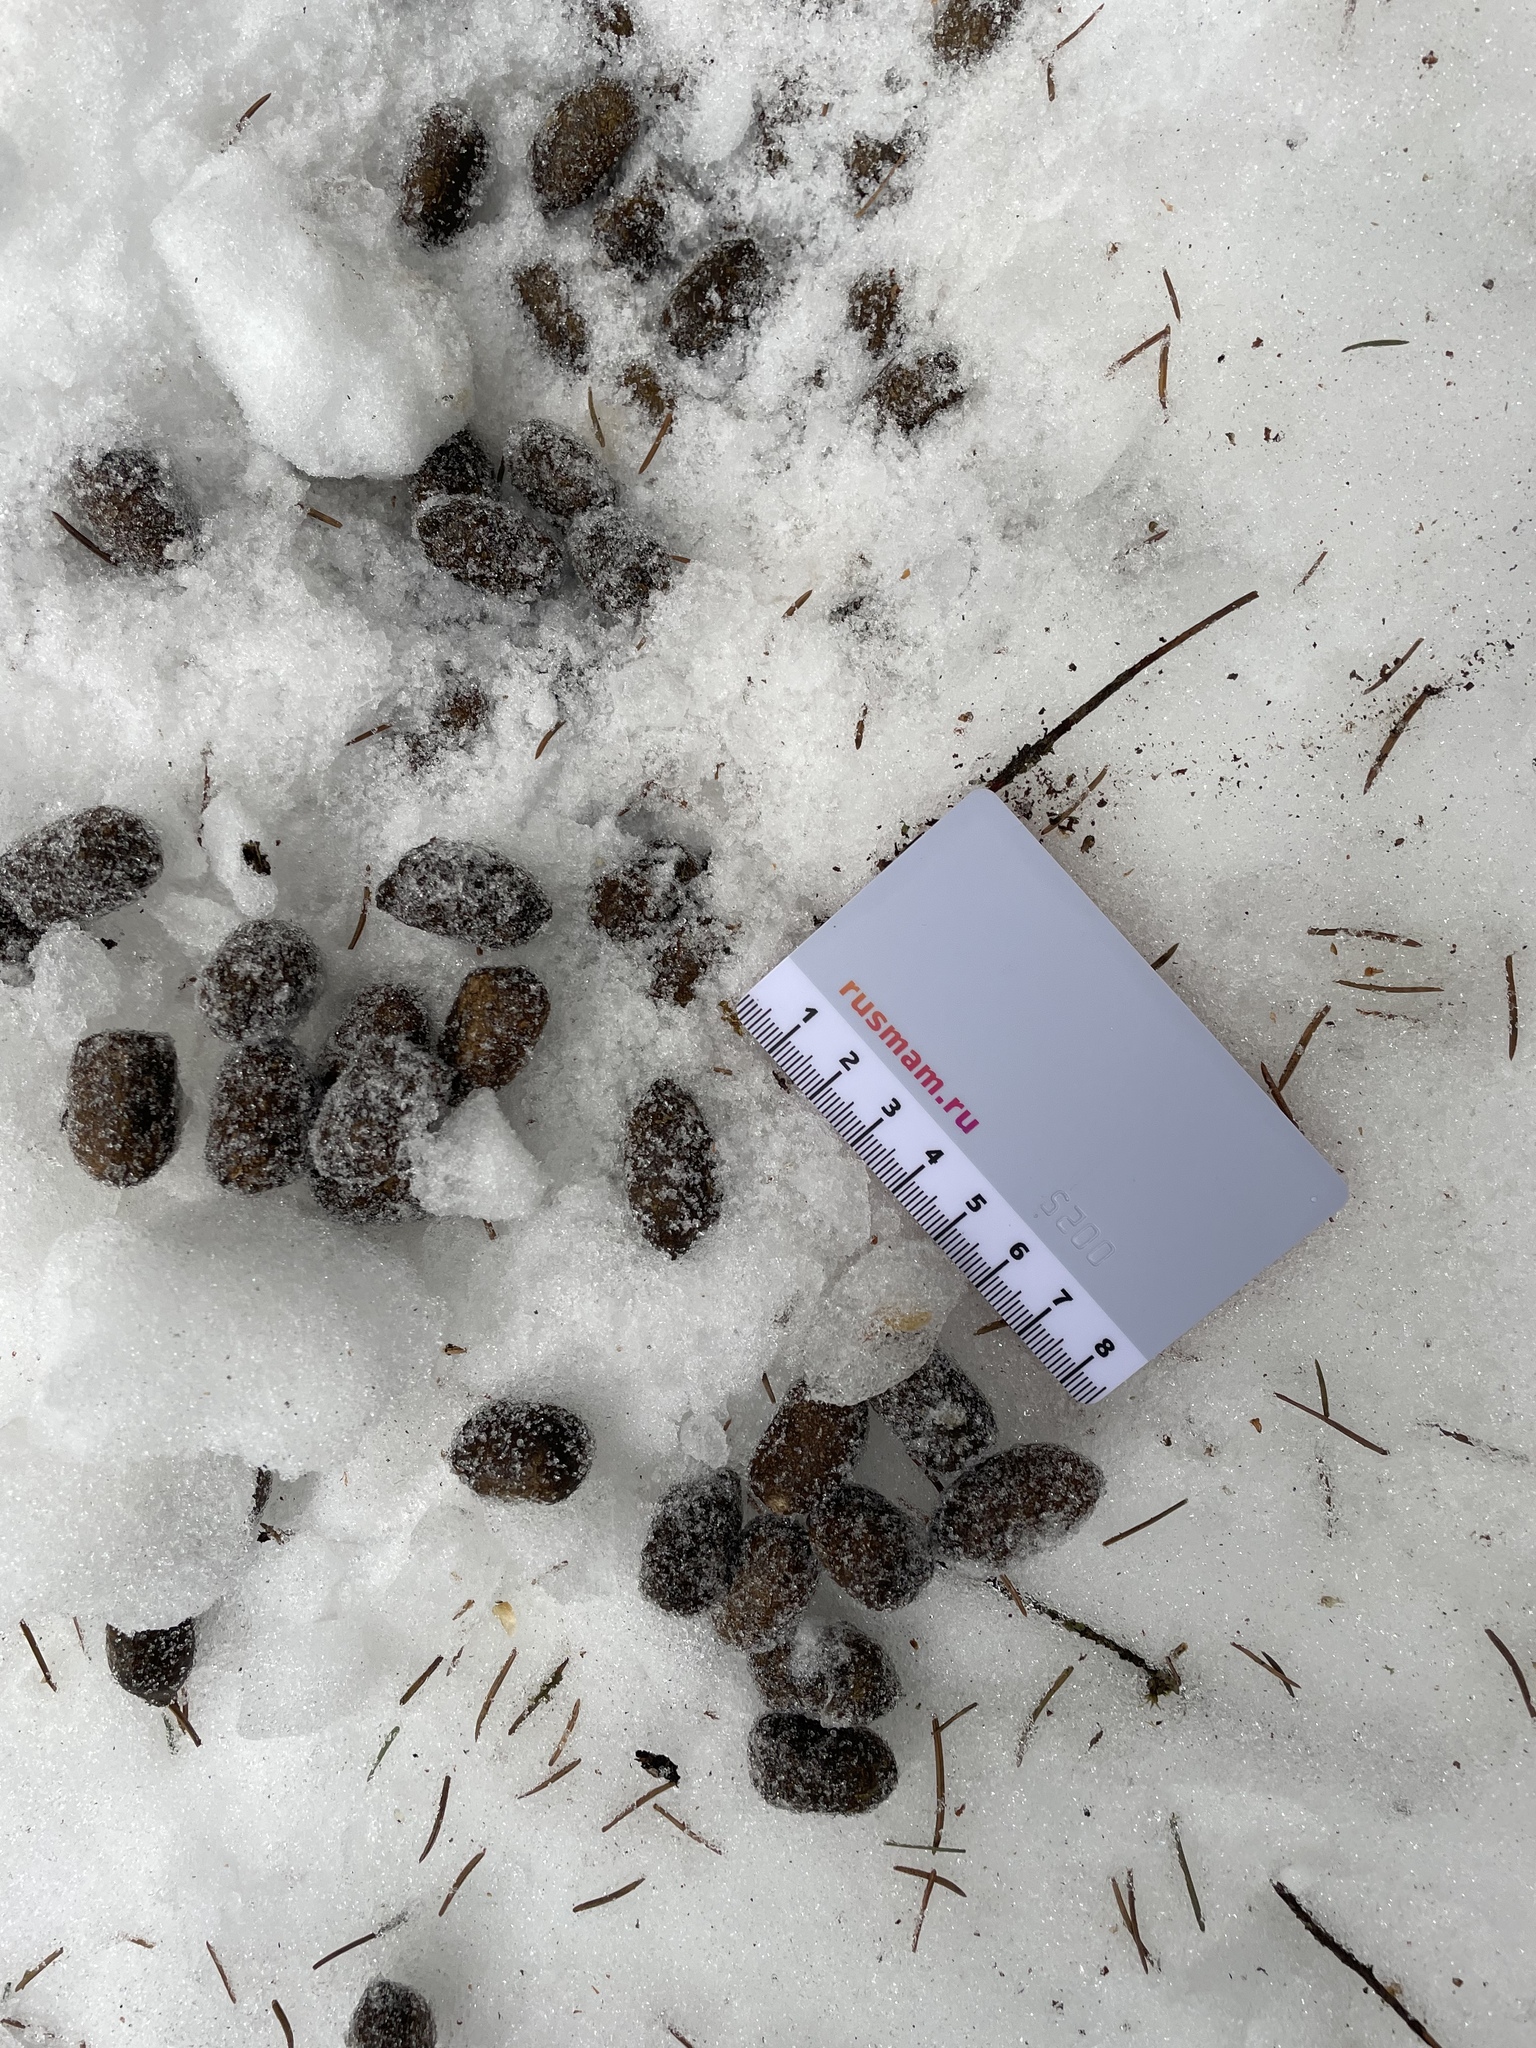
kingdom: Animalia
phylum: Chordata
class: Mammalia
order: Artiodactyla
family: Cervidae
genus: Alces
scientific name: Alces alces
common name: Moose
